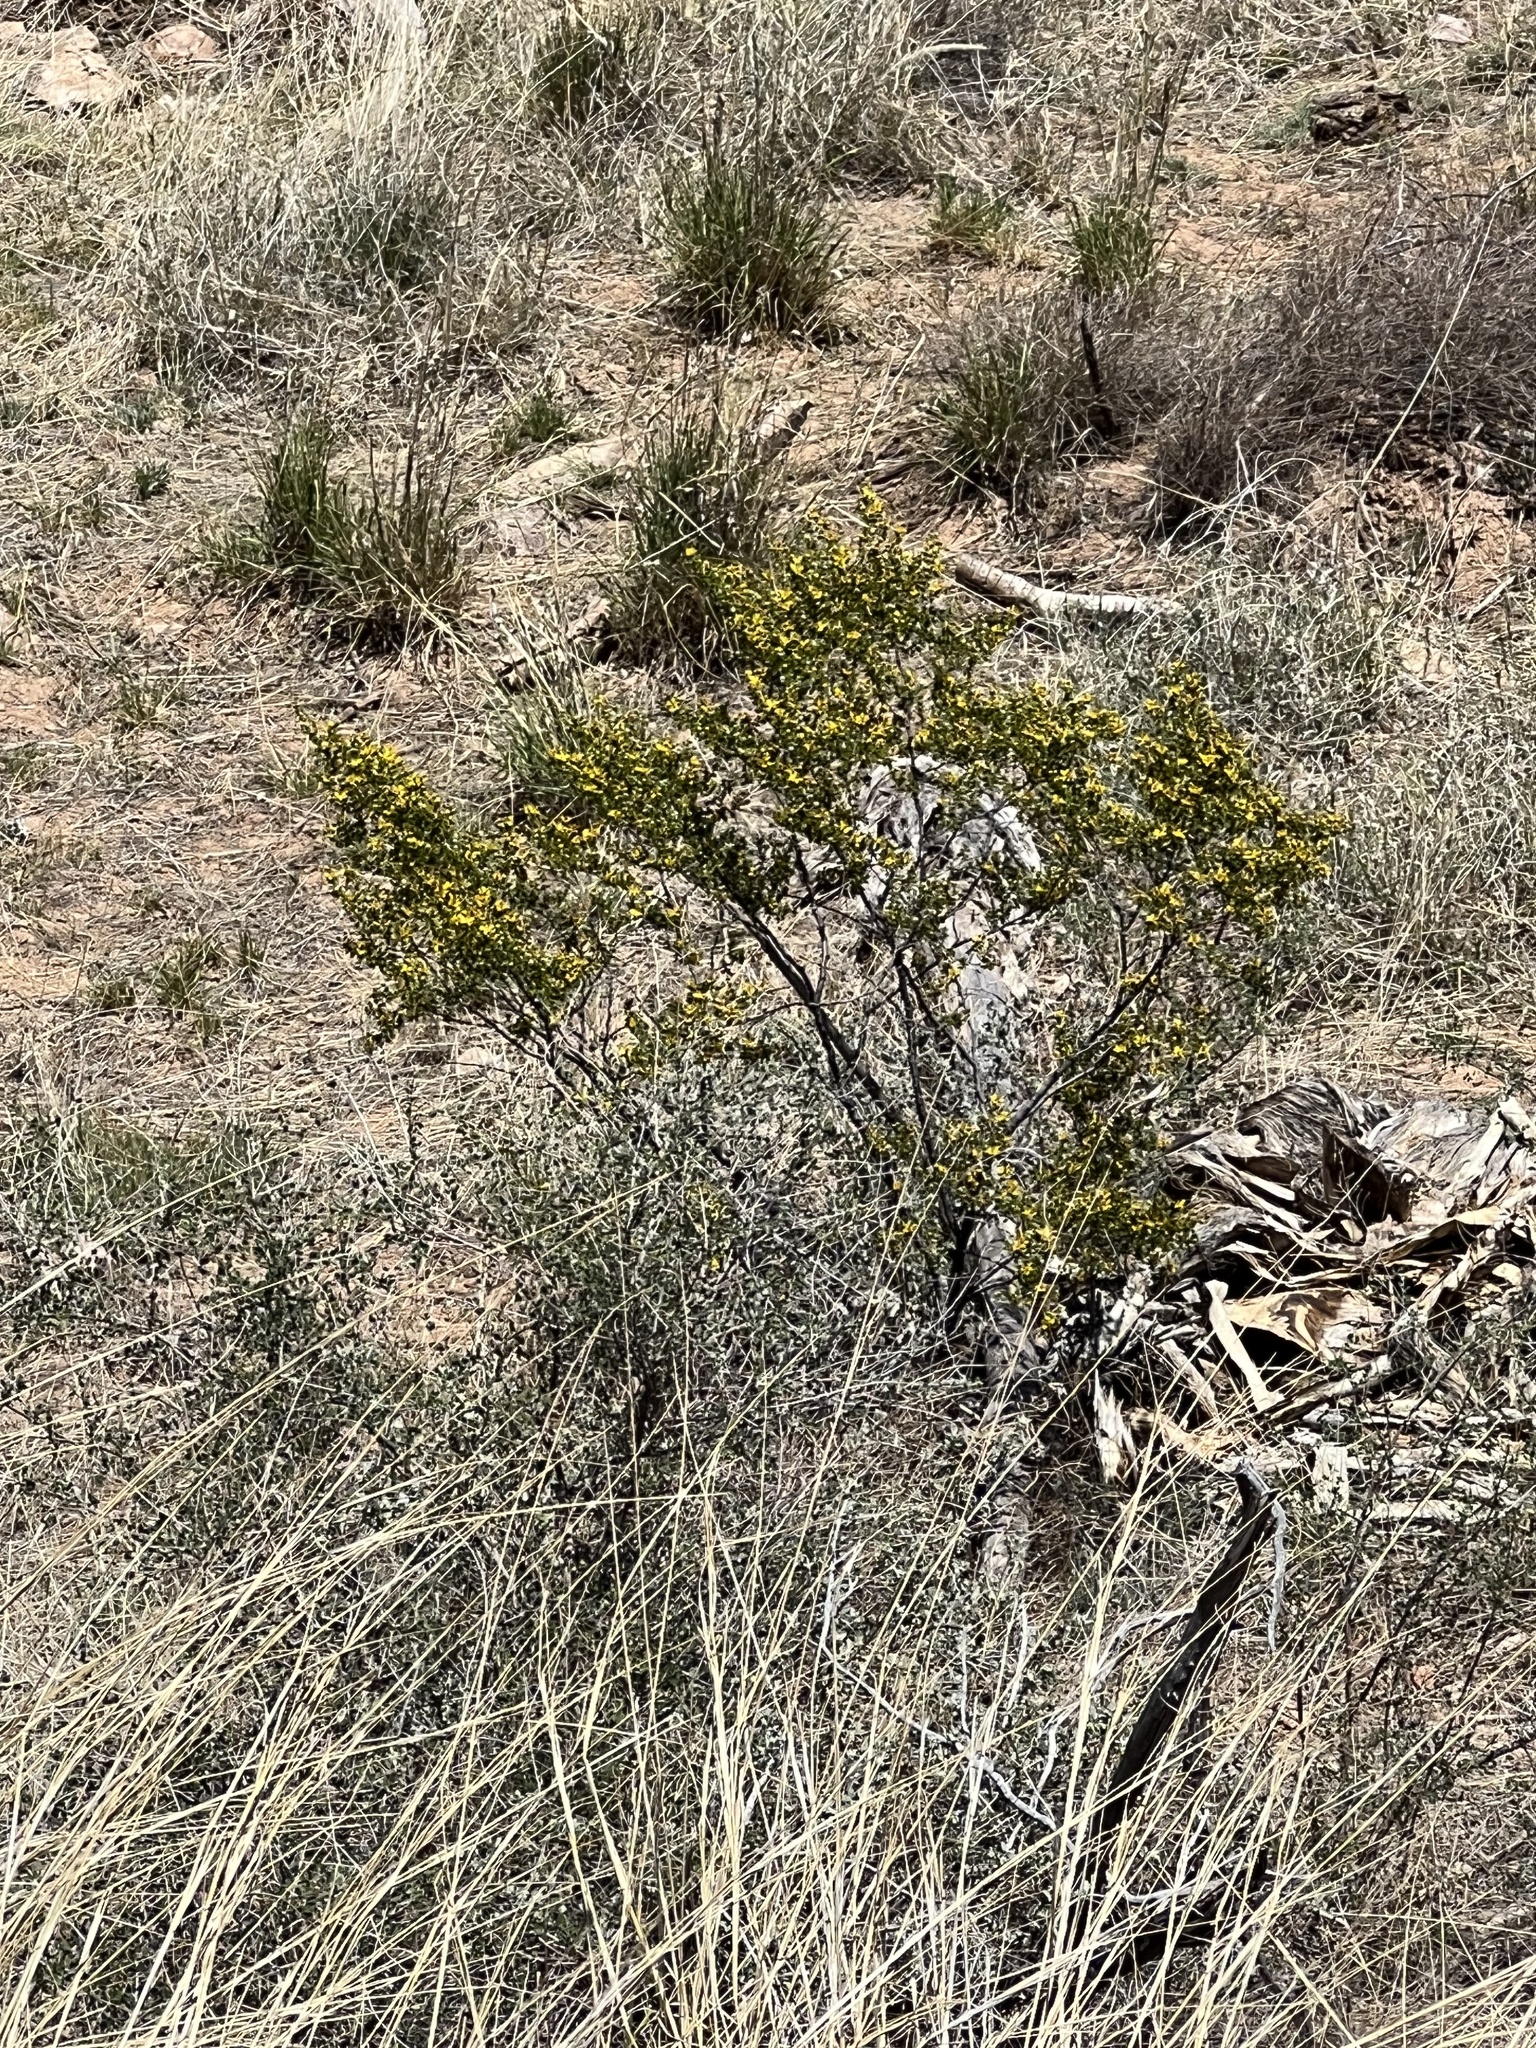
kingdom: Plantae
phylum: Tracheophyta
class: Magnoliopsida
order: Zygophyllales
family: Zygophyllaceae
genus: Larrea
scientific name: Larrea tridentata
